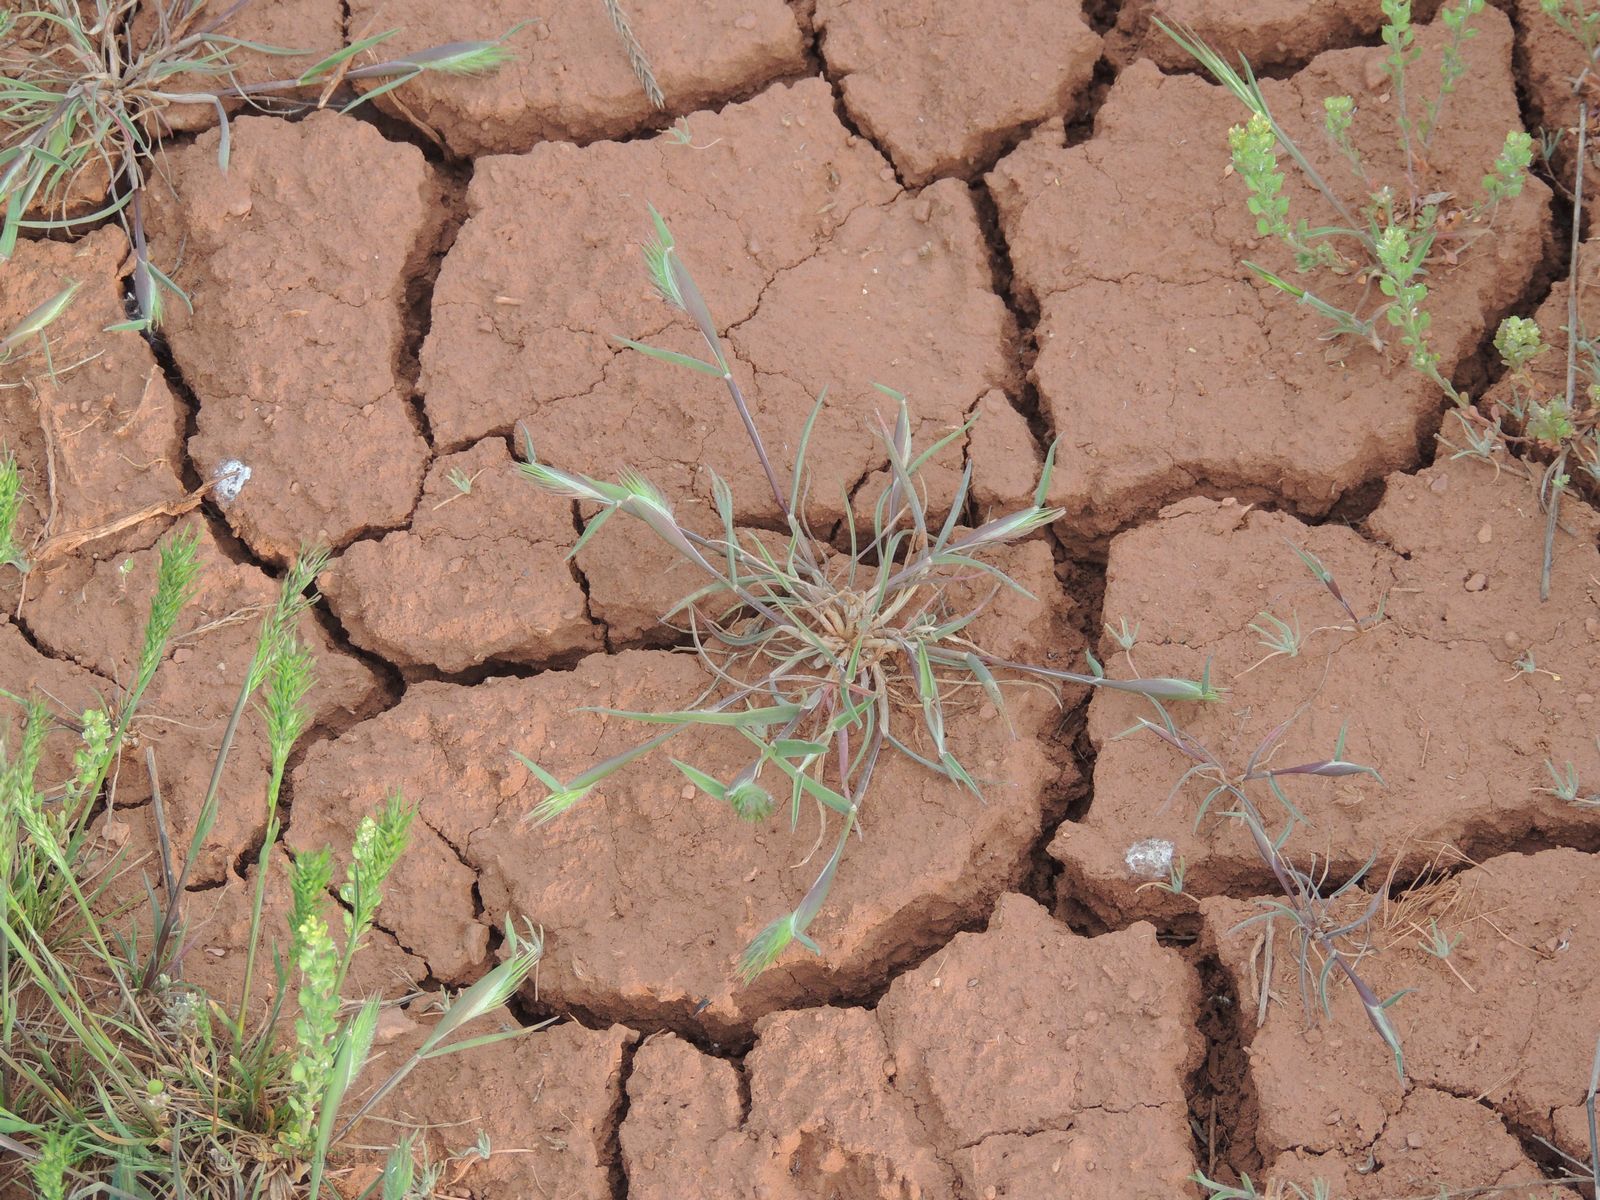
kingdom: Plantae
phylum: Tracheophyta
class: Magnoliopsida
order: Brassicales
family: Brassicaceae
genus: Alyssum
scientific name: Alyssum turkestanicum
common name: Desert alyssum
